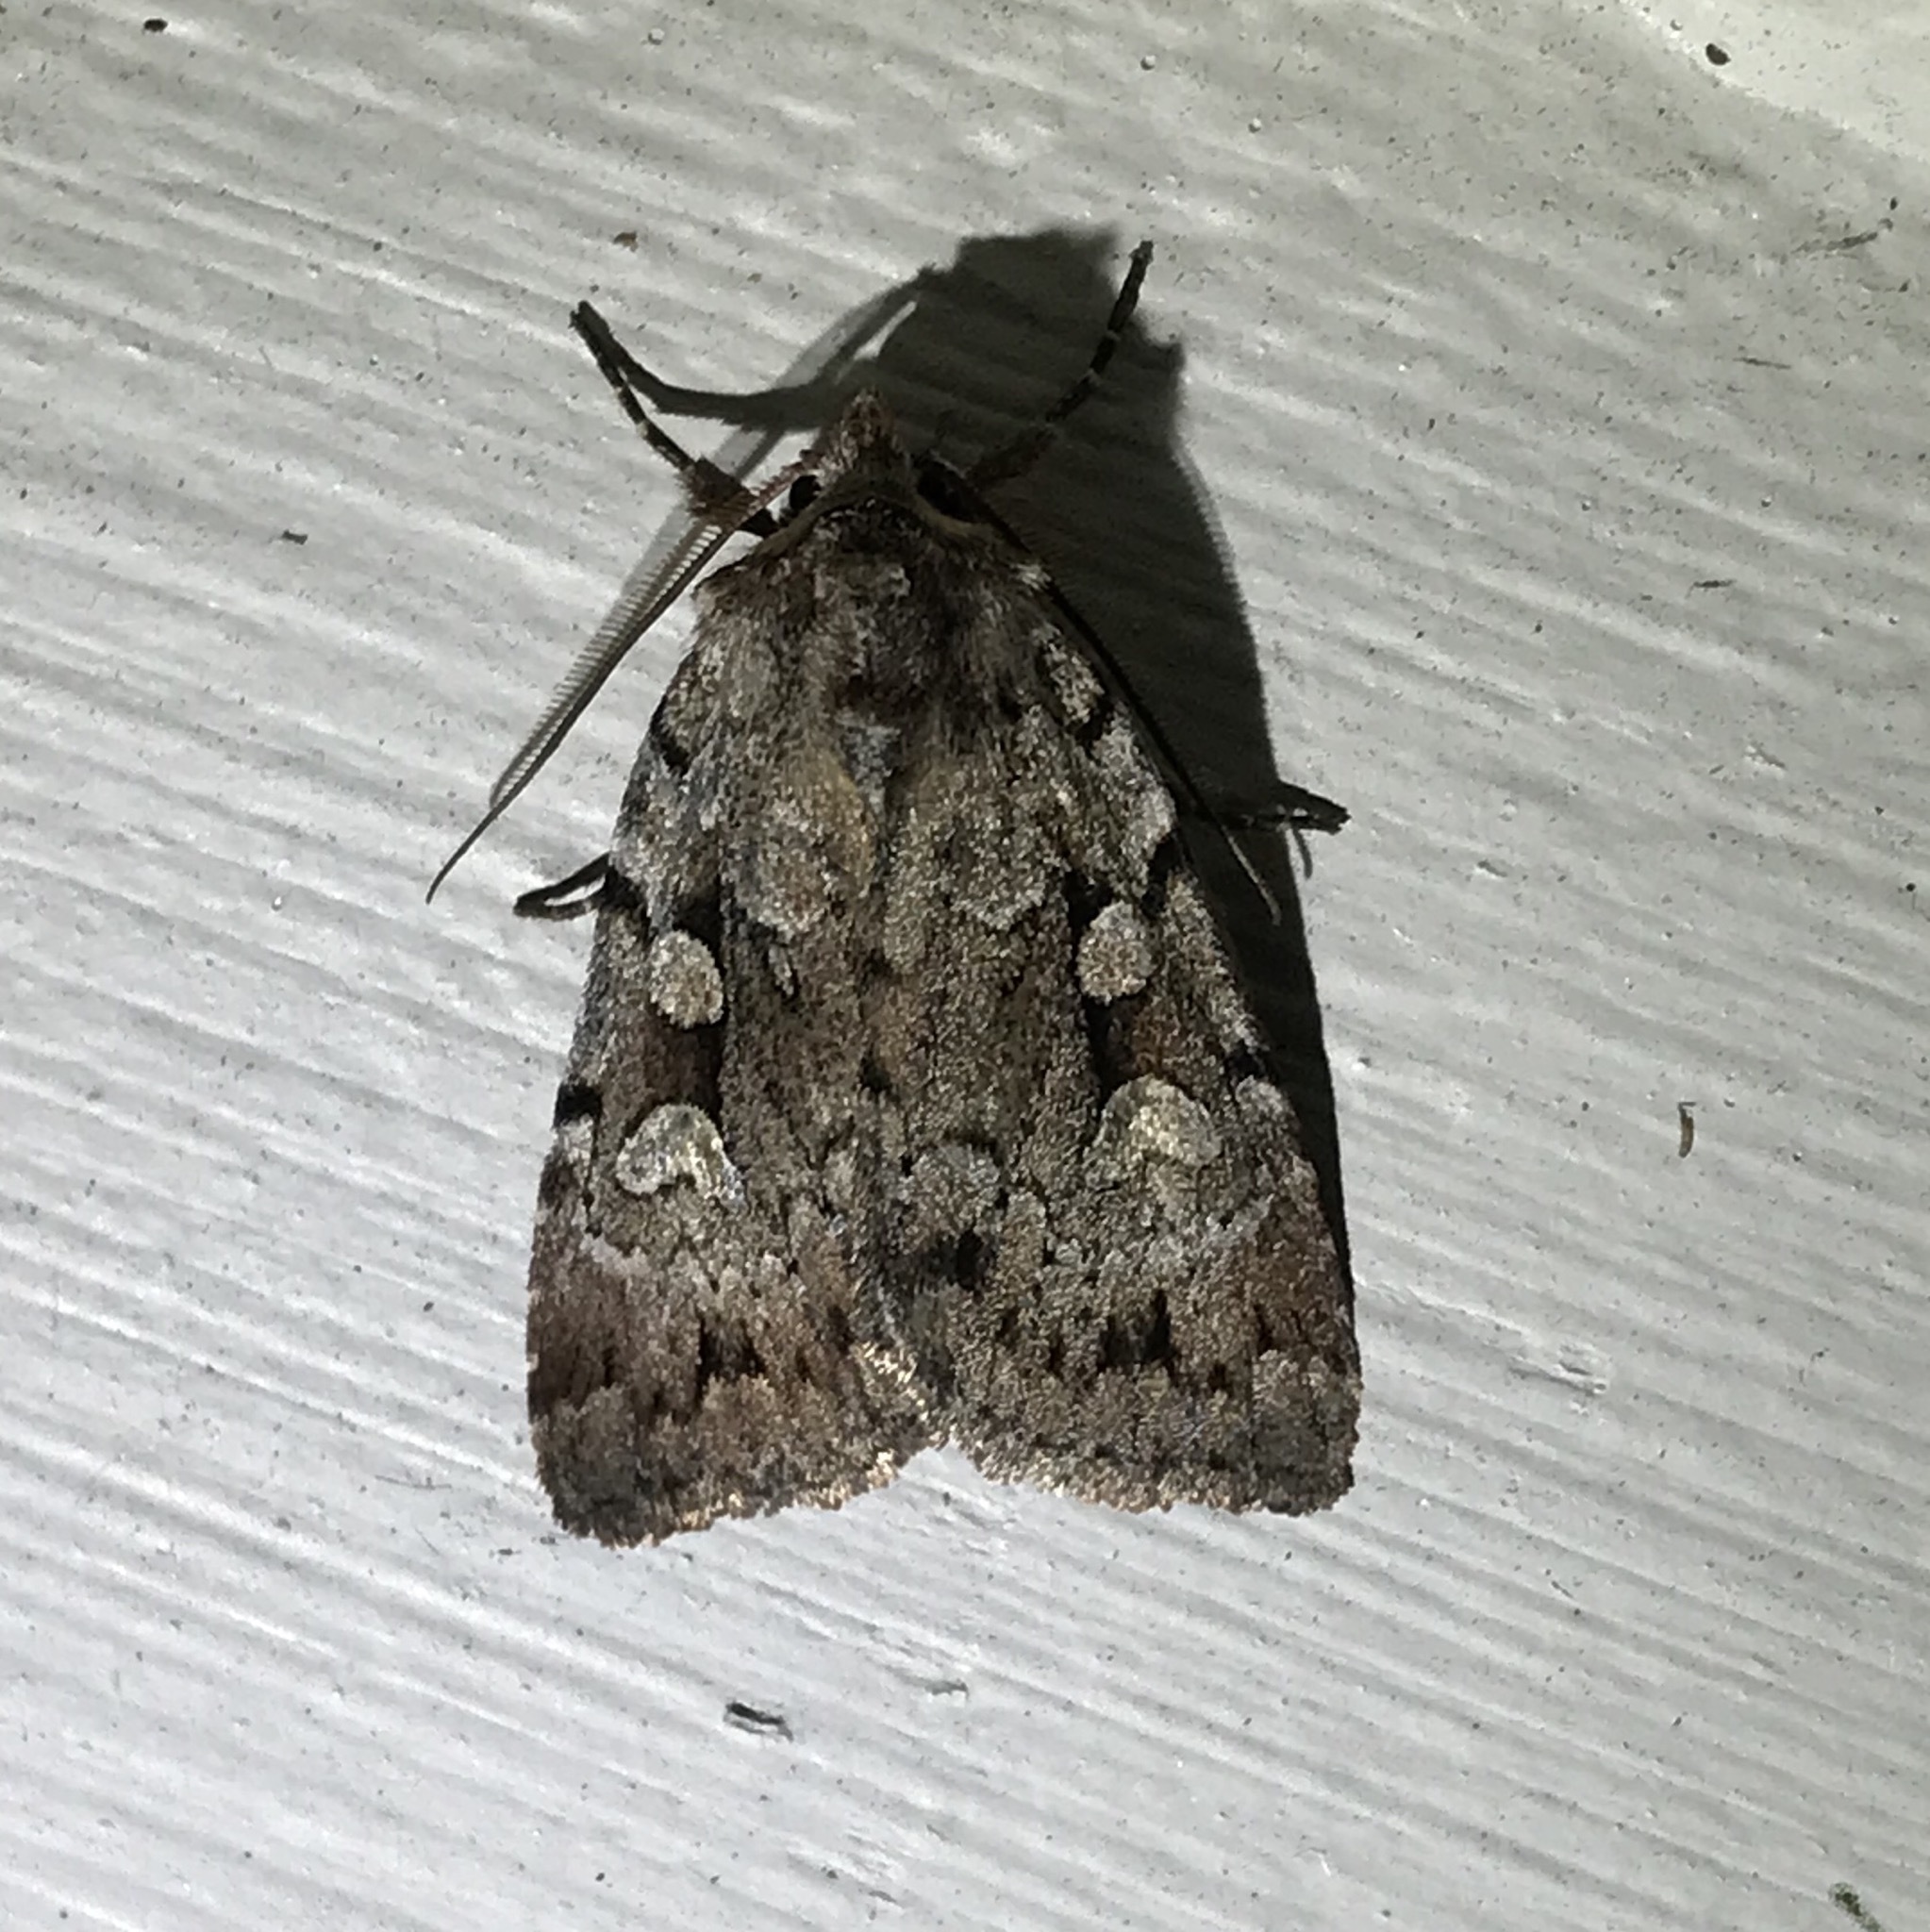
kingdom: Animalia
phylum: Arthropoda
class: Insecta
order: Lepidoptera
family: Noctuidae
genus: Xestia
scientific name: Xestia badicollis
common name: Northern variable dart
